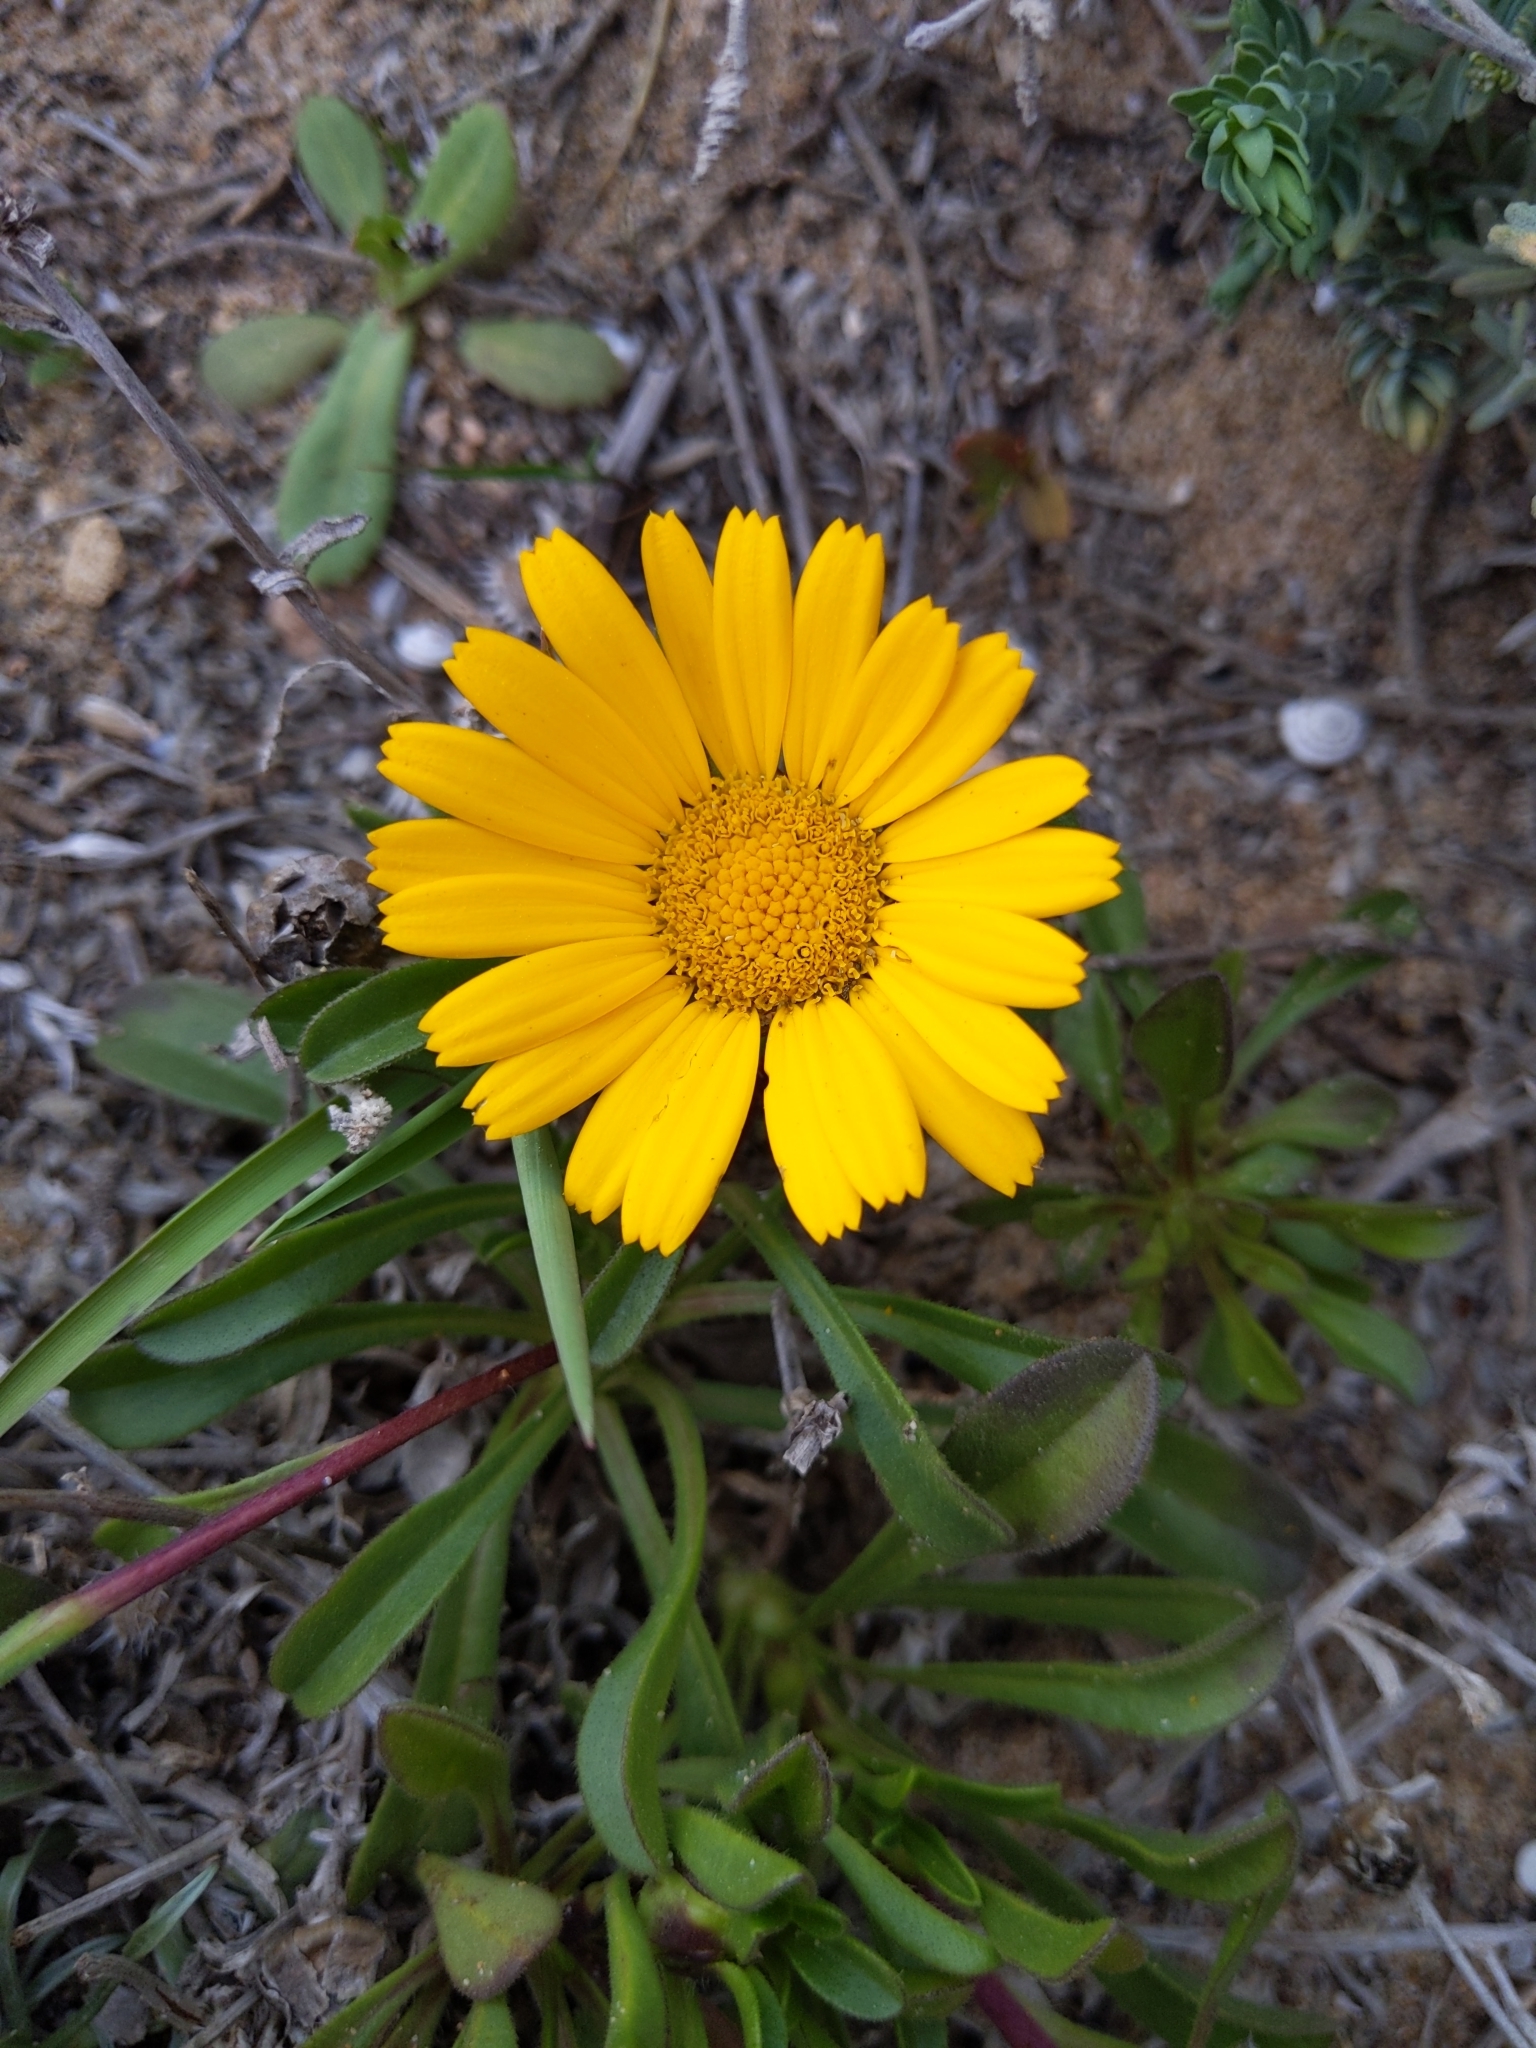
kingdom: Plantae
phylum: Tracheophyta
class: Magnoliopsida
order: Asterales
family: Asteraceae
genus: Pallenis
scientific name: Pallenis maritima
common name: Golden coin daisy
